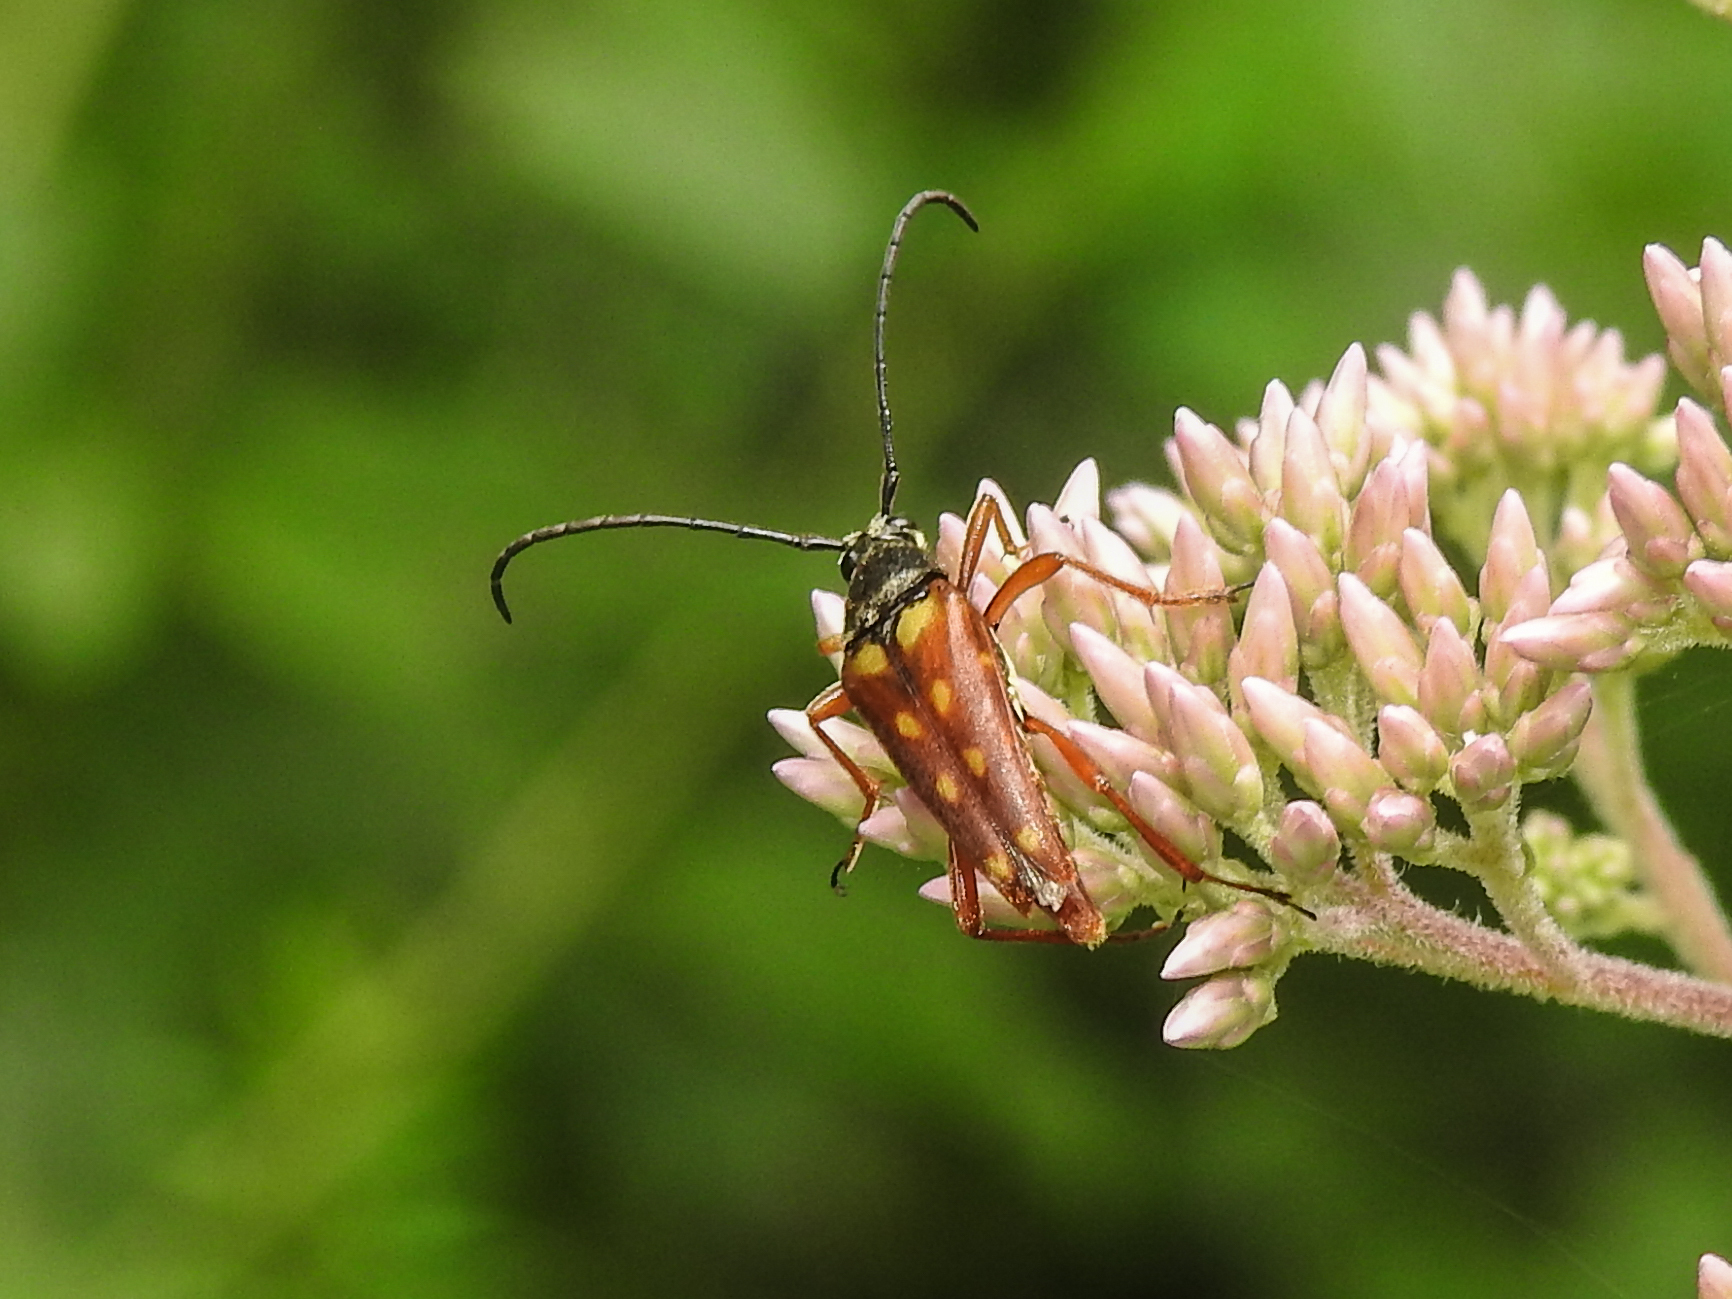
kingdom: Animalia
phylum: Arthropoda
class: Insecta
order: Coleoptera
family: Cerambycidae
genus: Typocerus
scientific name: Typocerus velutinus
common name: Banded longhorn beetle
